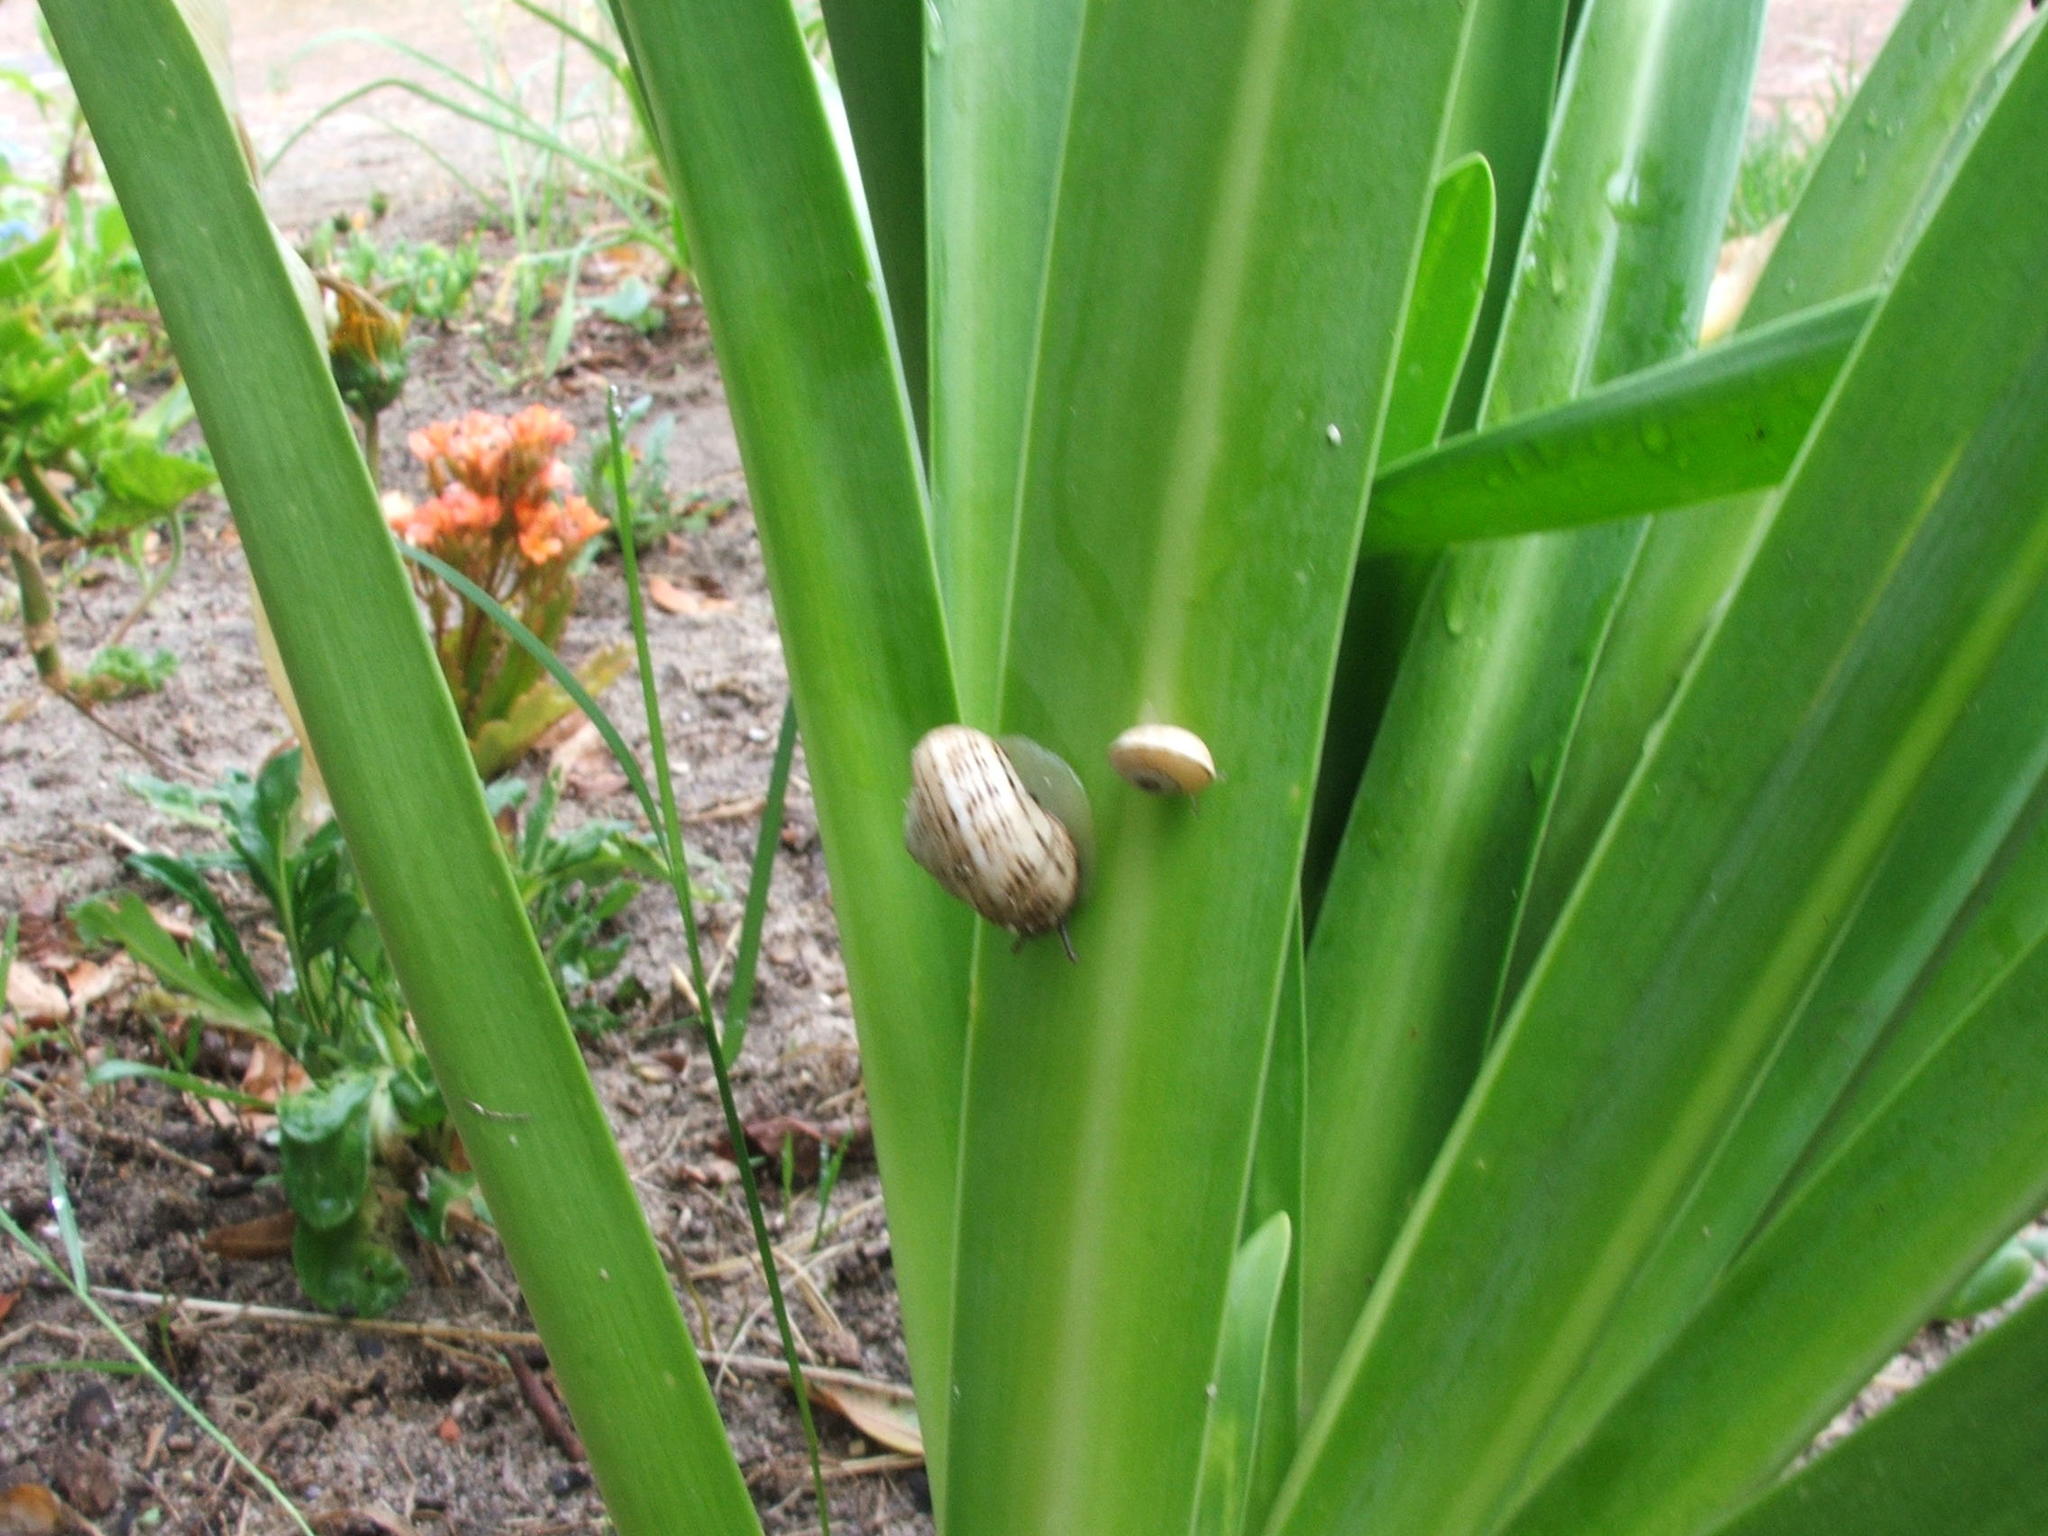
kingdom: Animalia
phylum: Mollusca
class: Gastropoda
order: Stylommatophora
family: Helicidae
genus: Theba
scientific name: Theba pisana
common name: White snail
